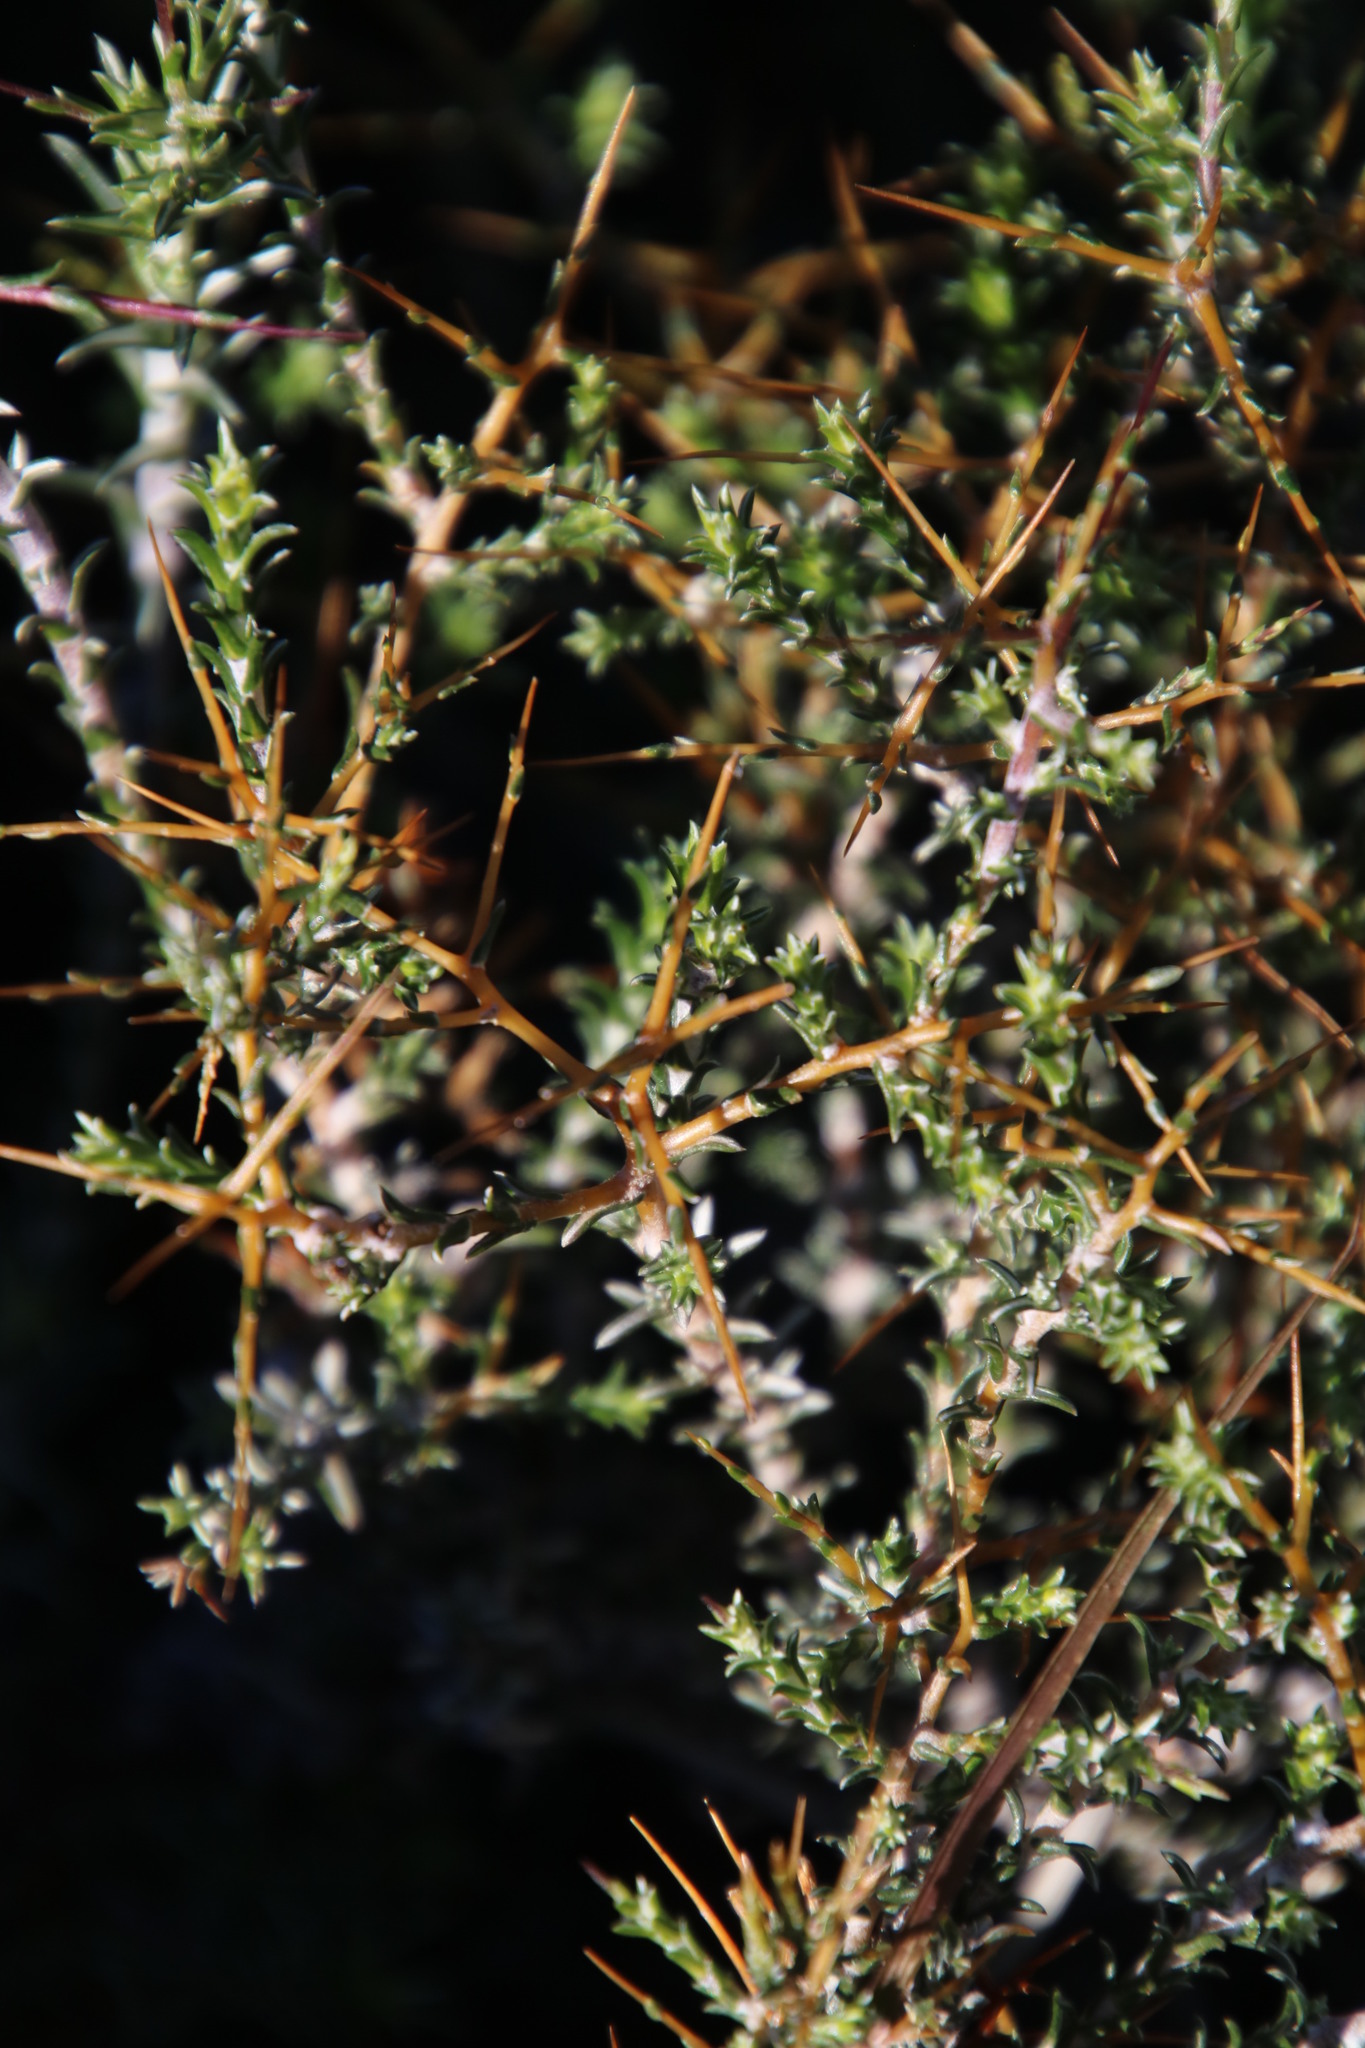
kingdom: Plantae
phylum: Tracheophyta
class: Magnoliopsida
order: Asterales
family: Asteraceae
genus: Pterothrix
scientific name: Pterothrix spinescens
